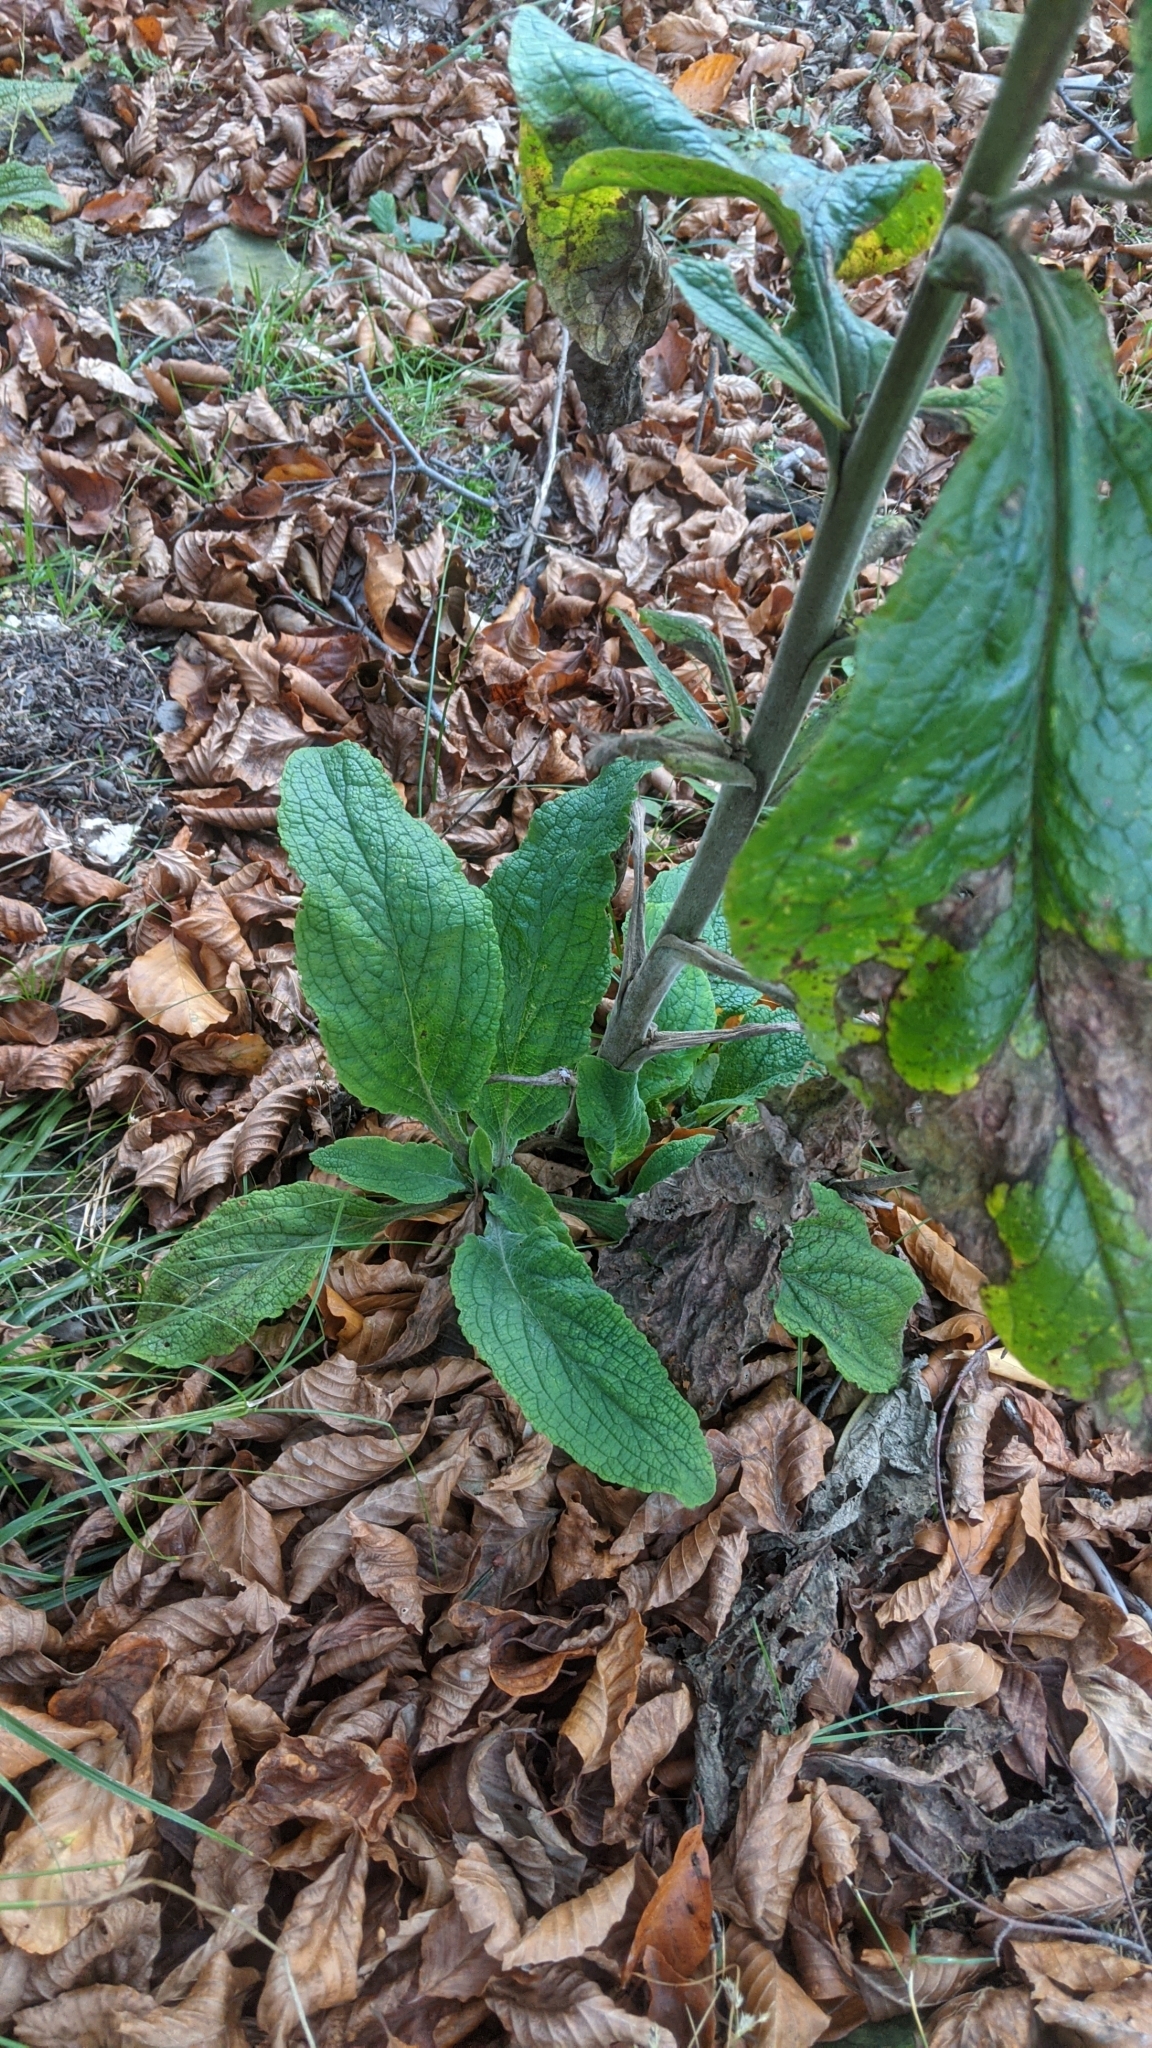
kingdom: Plantae
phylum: Tracheophyta
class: Magnoliopsida
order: Lamiales
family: Plantaginaceae
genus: Digitalis
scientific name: Digitalis purpurea
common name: Foxglove
